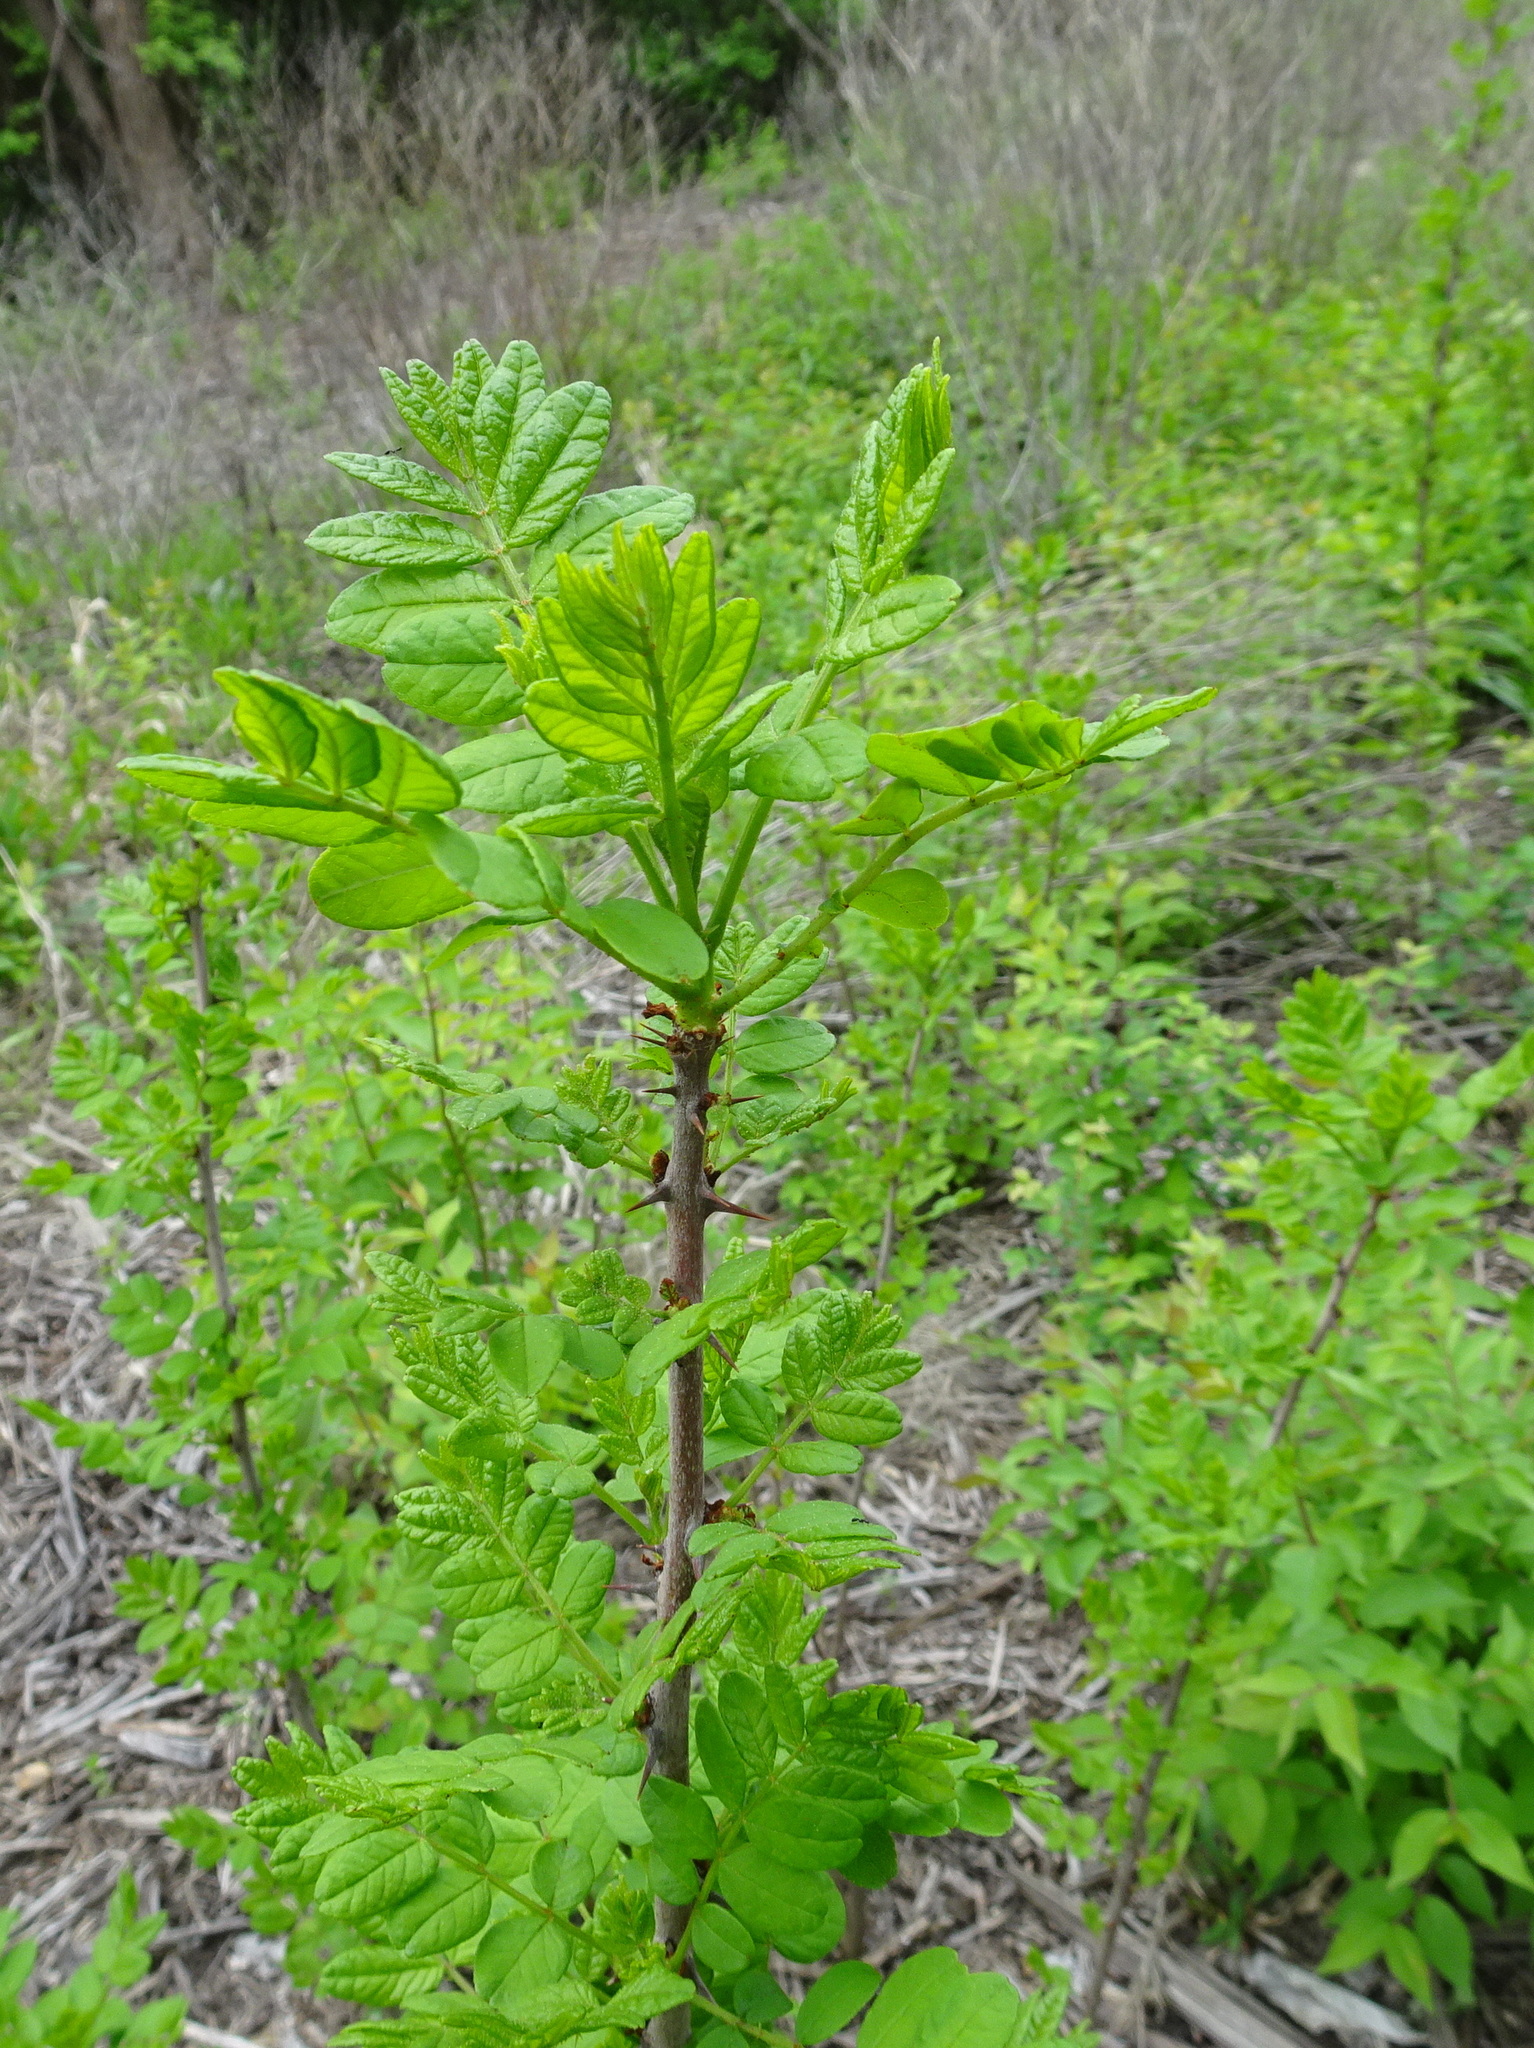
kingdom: Plantae
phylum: Tracheophyta
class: Magnoliopsida
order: Sapindales
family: Rutaceae
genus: Zanthoxylum
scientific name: Zanthoxylum americanum
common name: Northern prickly-ash
